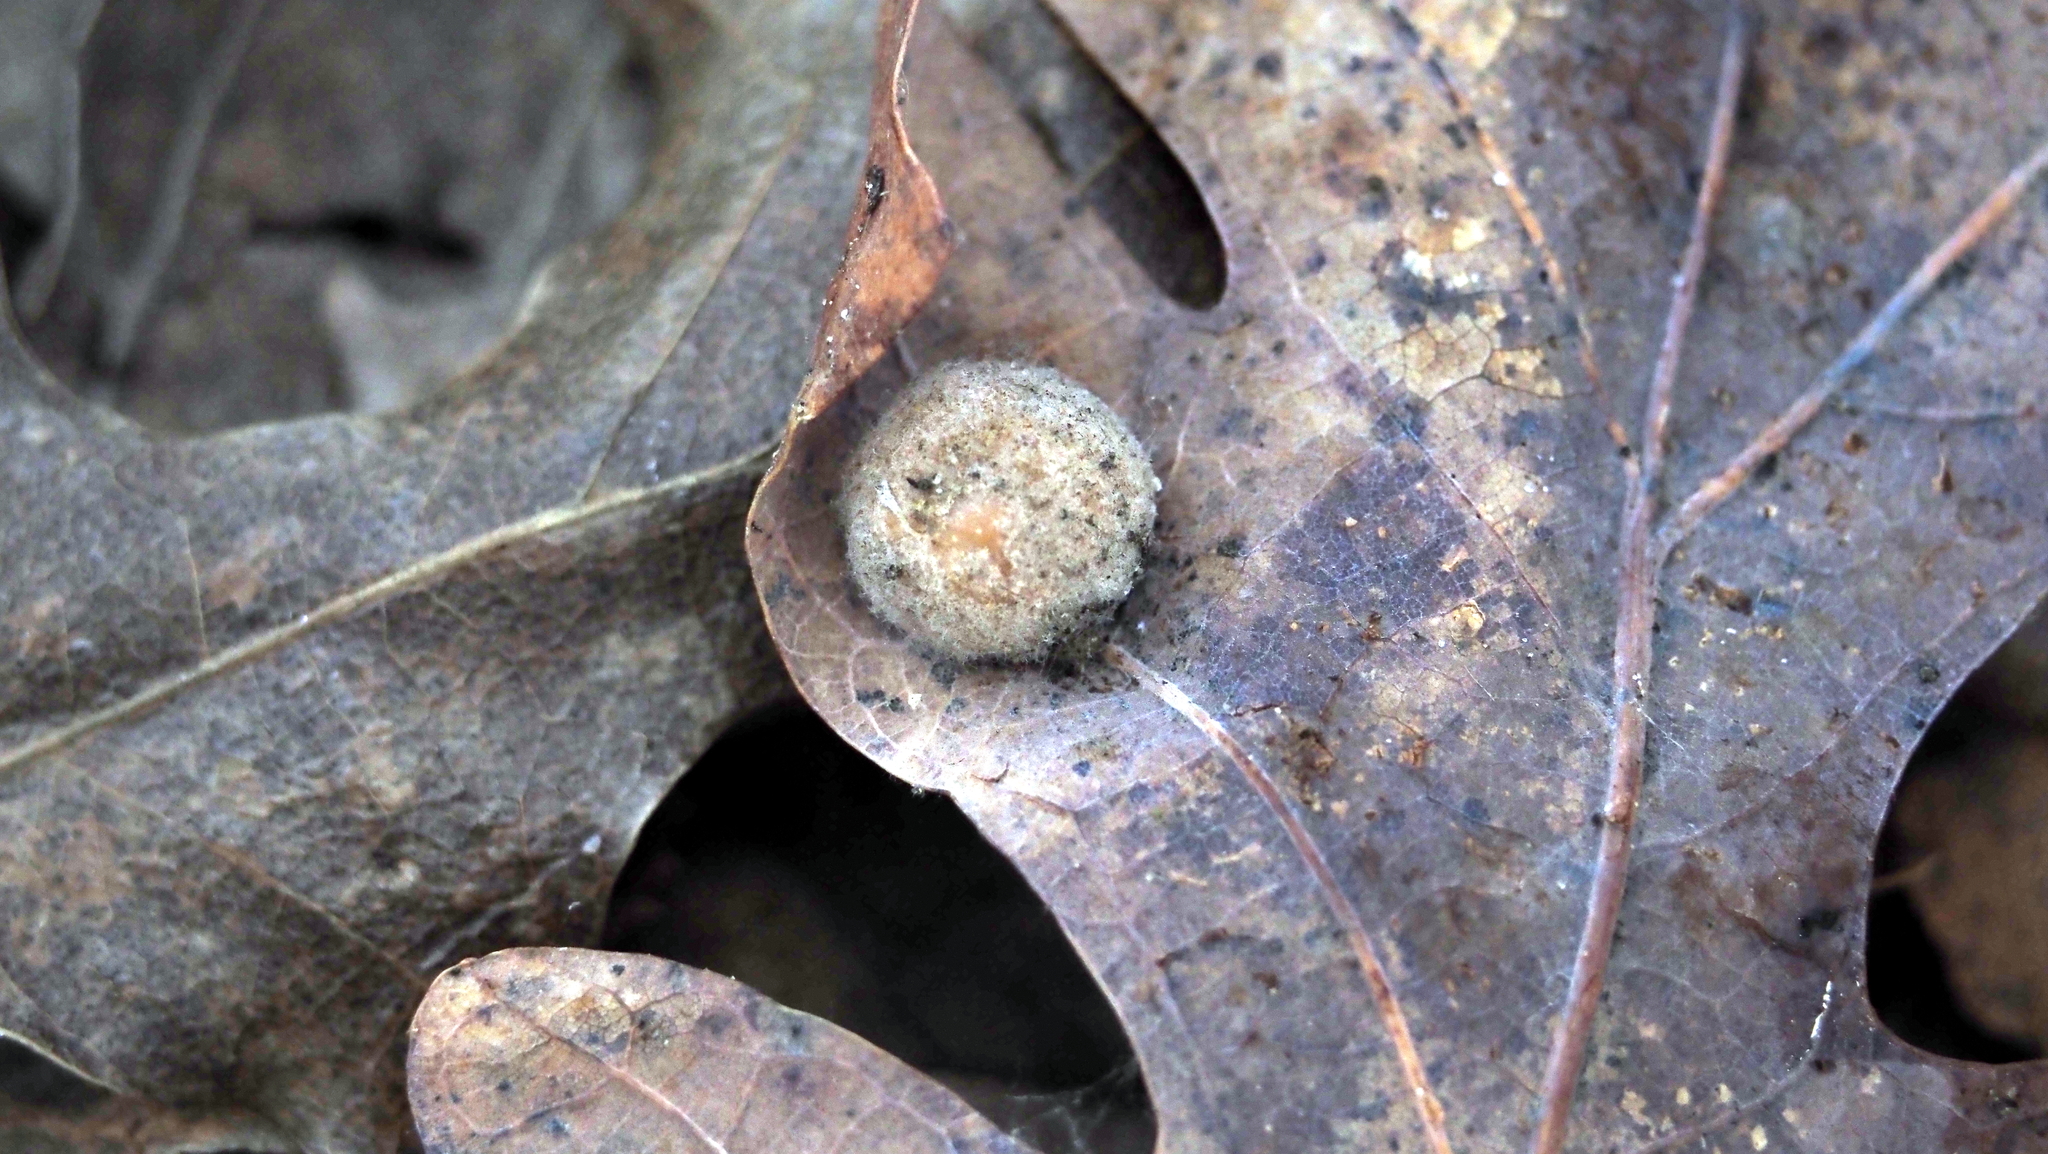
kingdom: Animalia
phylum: Arthropoda
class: Insecta
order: Hymenoptera
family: Cynipidae
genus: Philonix
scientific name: Philonix fulvicollis
